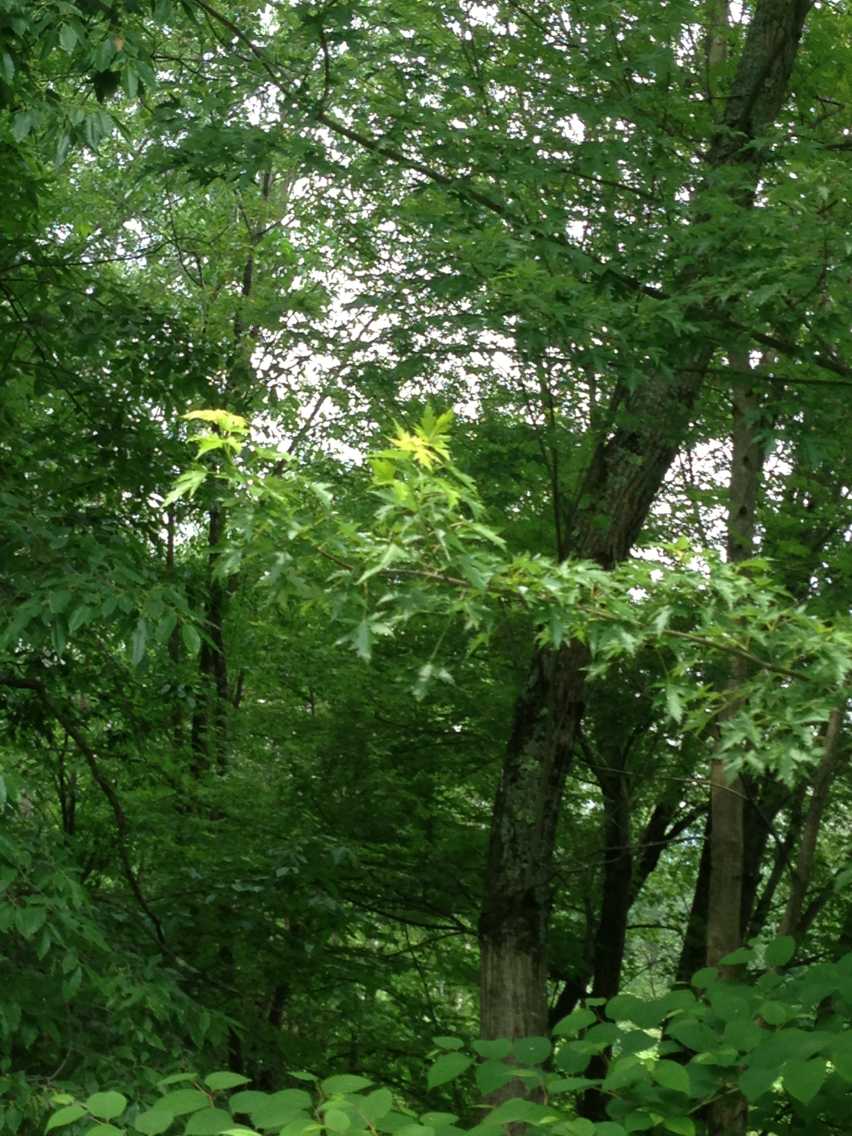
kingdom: Plantae
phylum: Tracheophyta
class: Magnoliopsida
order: Sapindales
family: Sapindaceae
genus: Acer
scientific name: Acer saccharinum
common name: Silver maple
